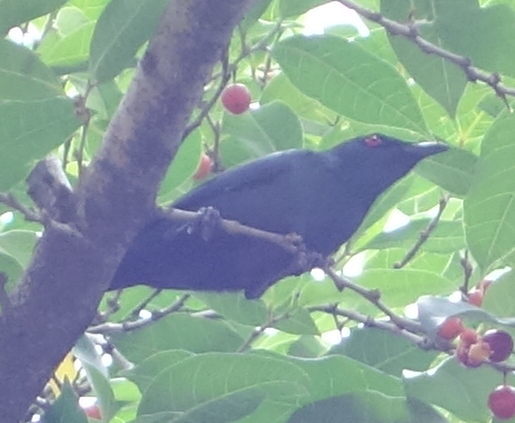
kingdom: Animalia
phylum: Chordata
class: Aves
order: Passeriformes
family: Sturnidae
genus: Aplonis
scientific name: Aplonis panayensis
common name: Asian glossy starling
